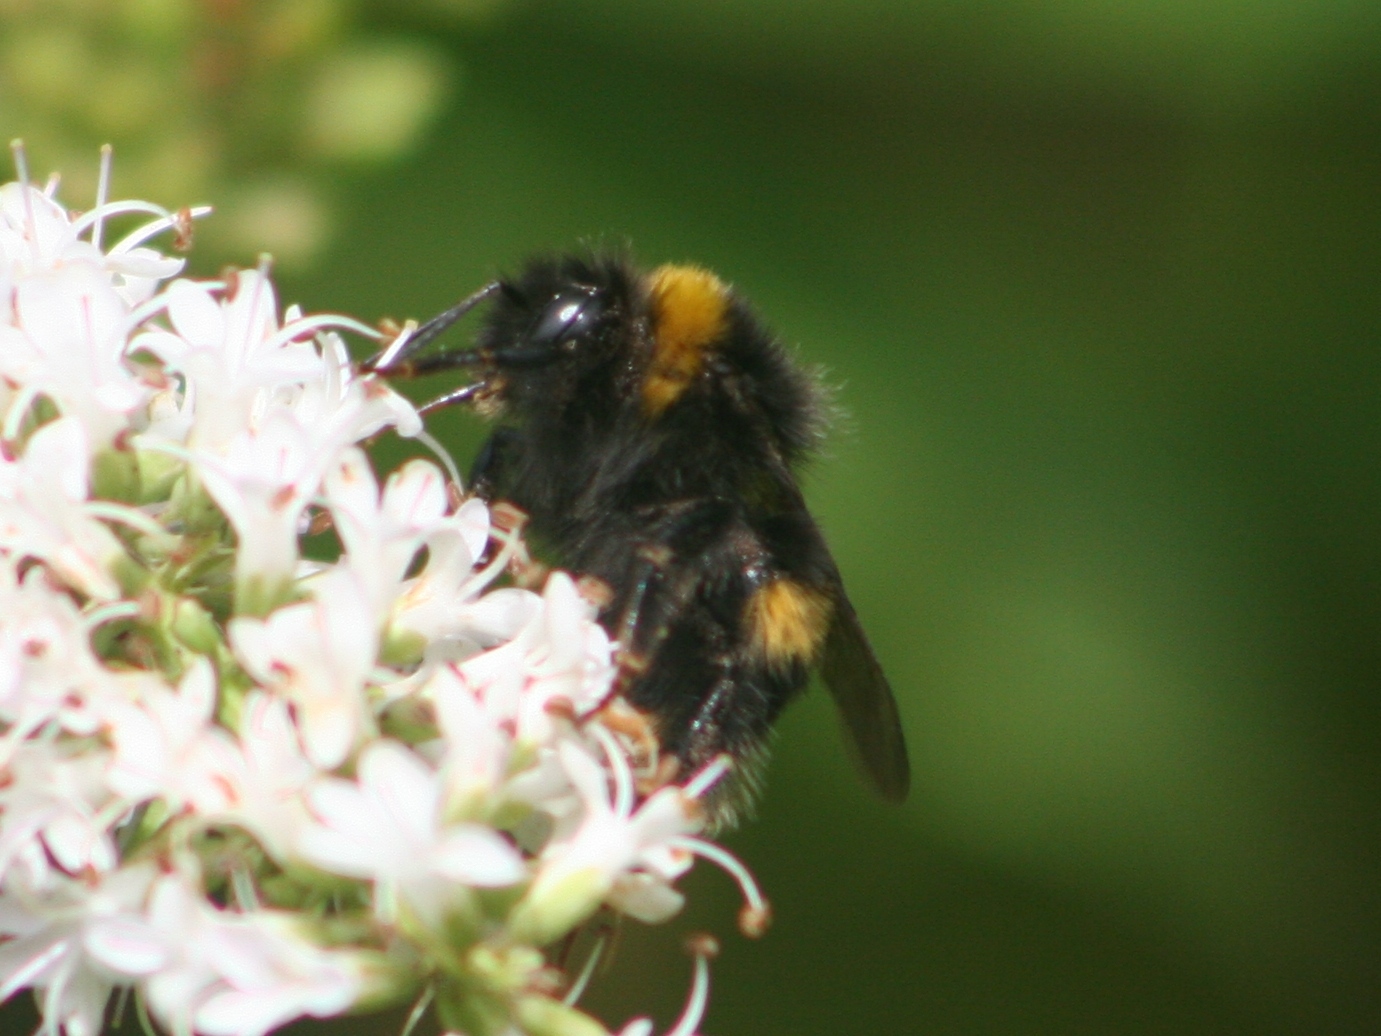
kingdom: Animalia
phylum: Arthropoda
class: Insecta
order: Hymenoptera
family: Apidae
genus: Bombus
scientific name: Bombus terrestris
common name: Buff-tailed bumblebee
